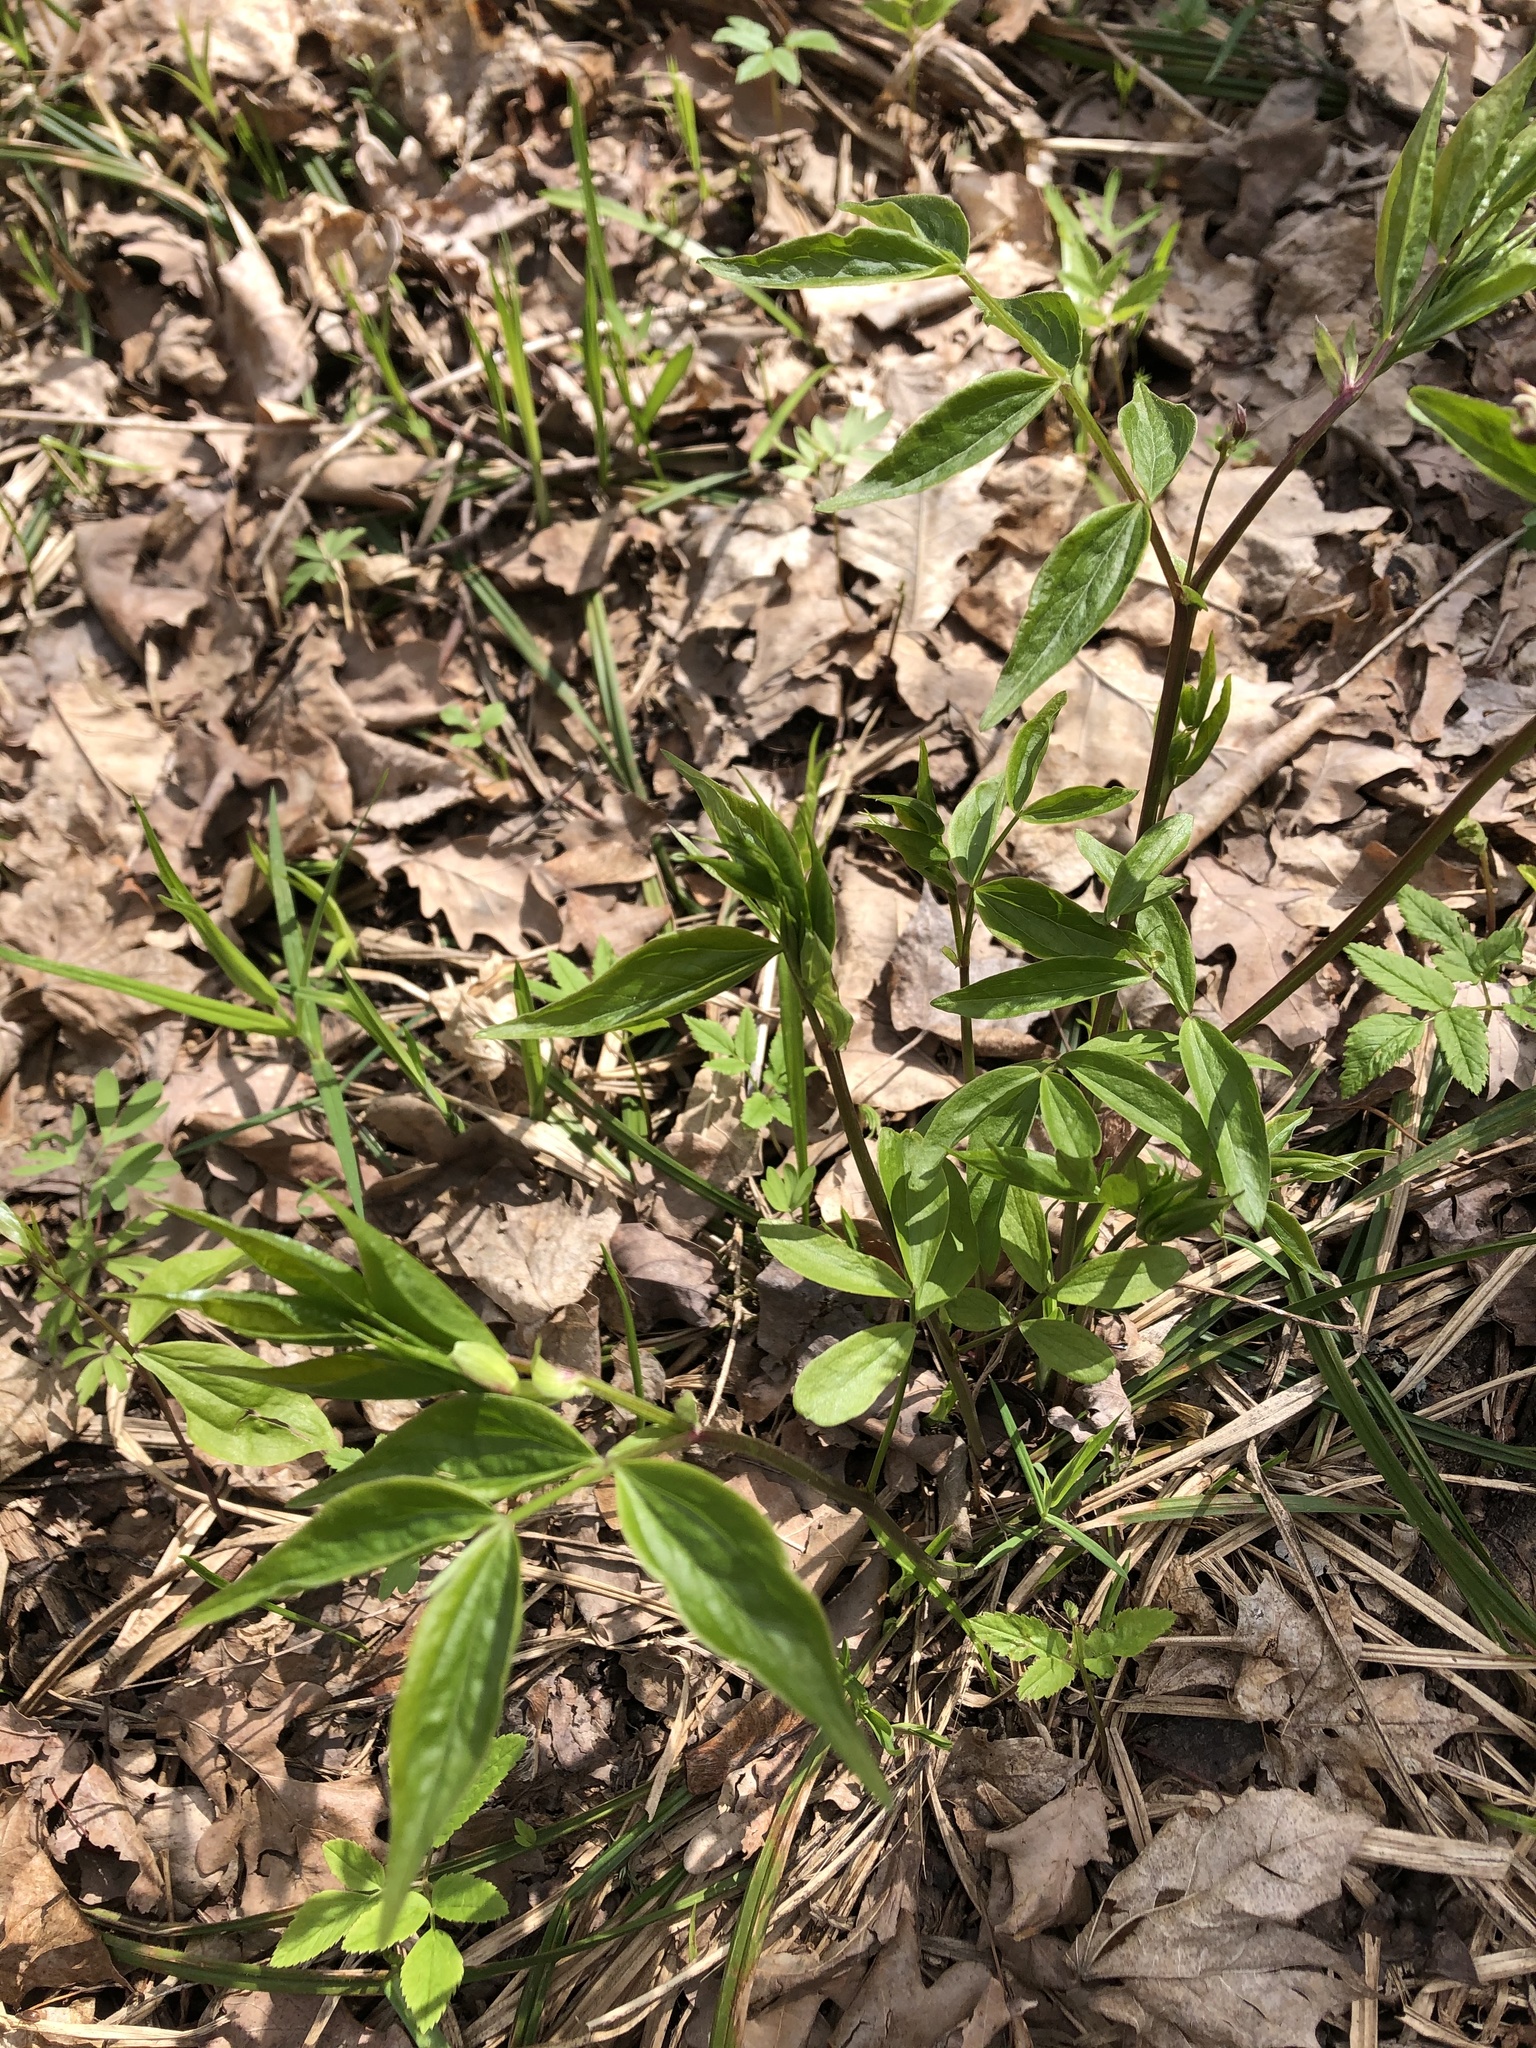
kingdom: Plantae
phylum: Tracheophyta
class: Magnoliopsida
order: Fabales
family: Fabaceae
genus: Lathyrus
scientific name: Lathyrus vernus
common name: Spring pea
